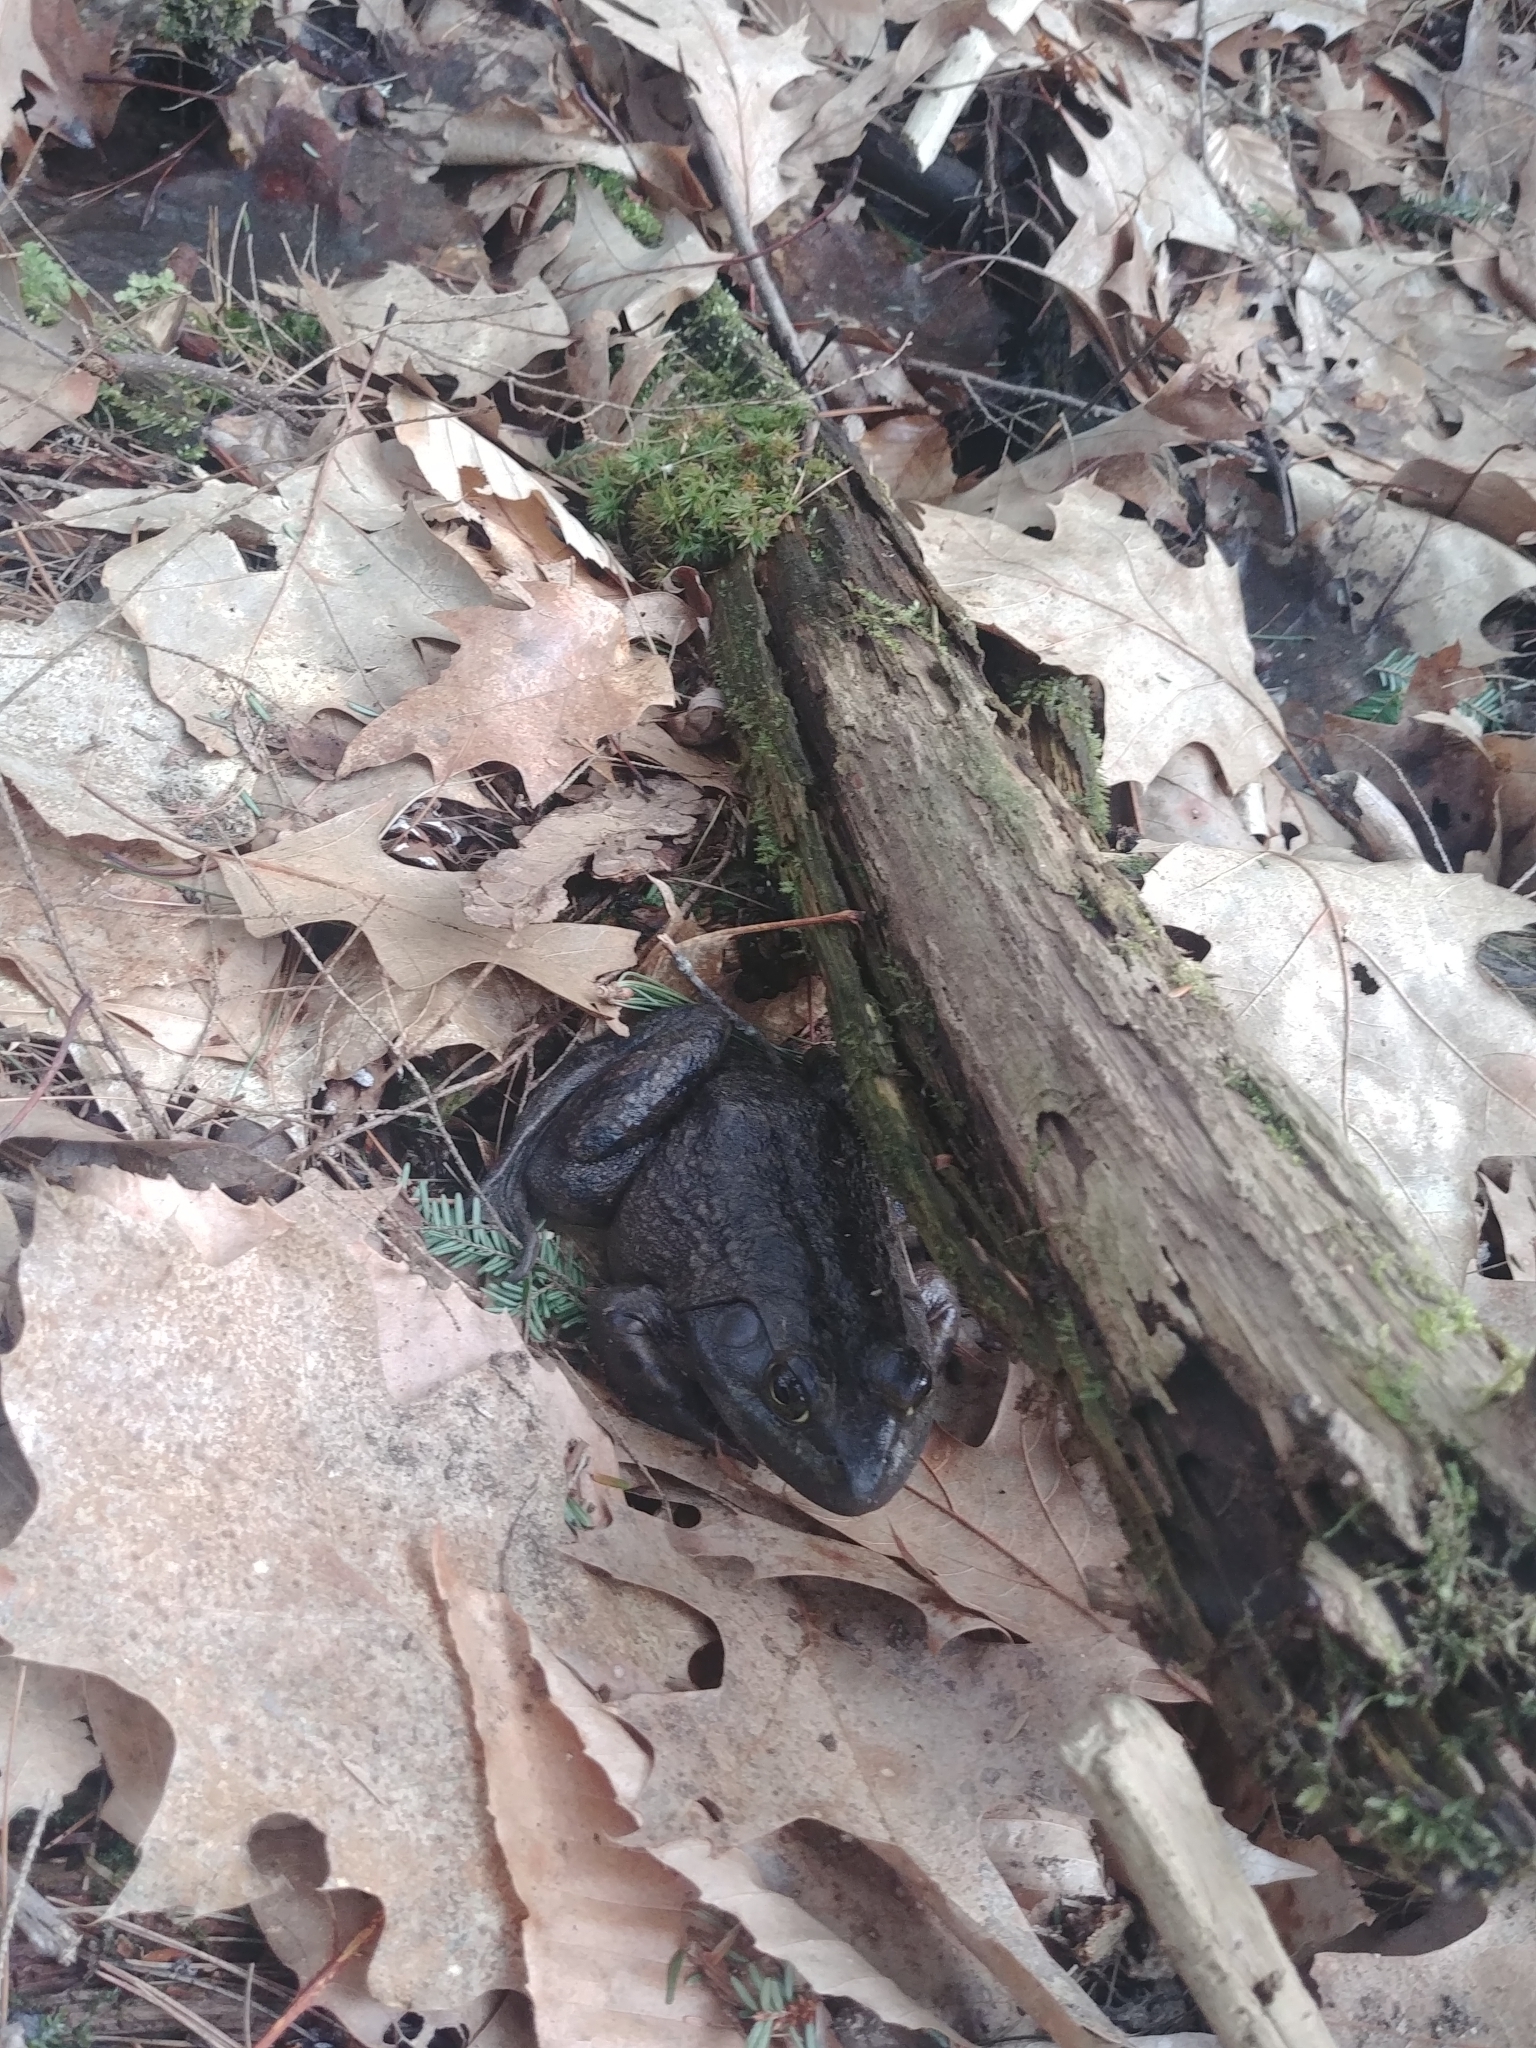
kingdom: Animalia
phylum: Chordata
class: Amphibia
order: Anura
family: Ranidae
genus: Lithobates
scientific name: Lithobates catesbeianus
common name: American bullfrog
